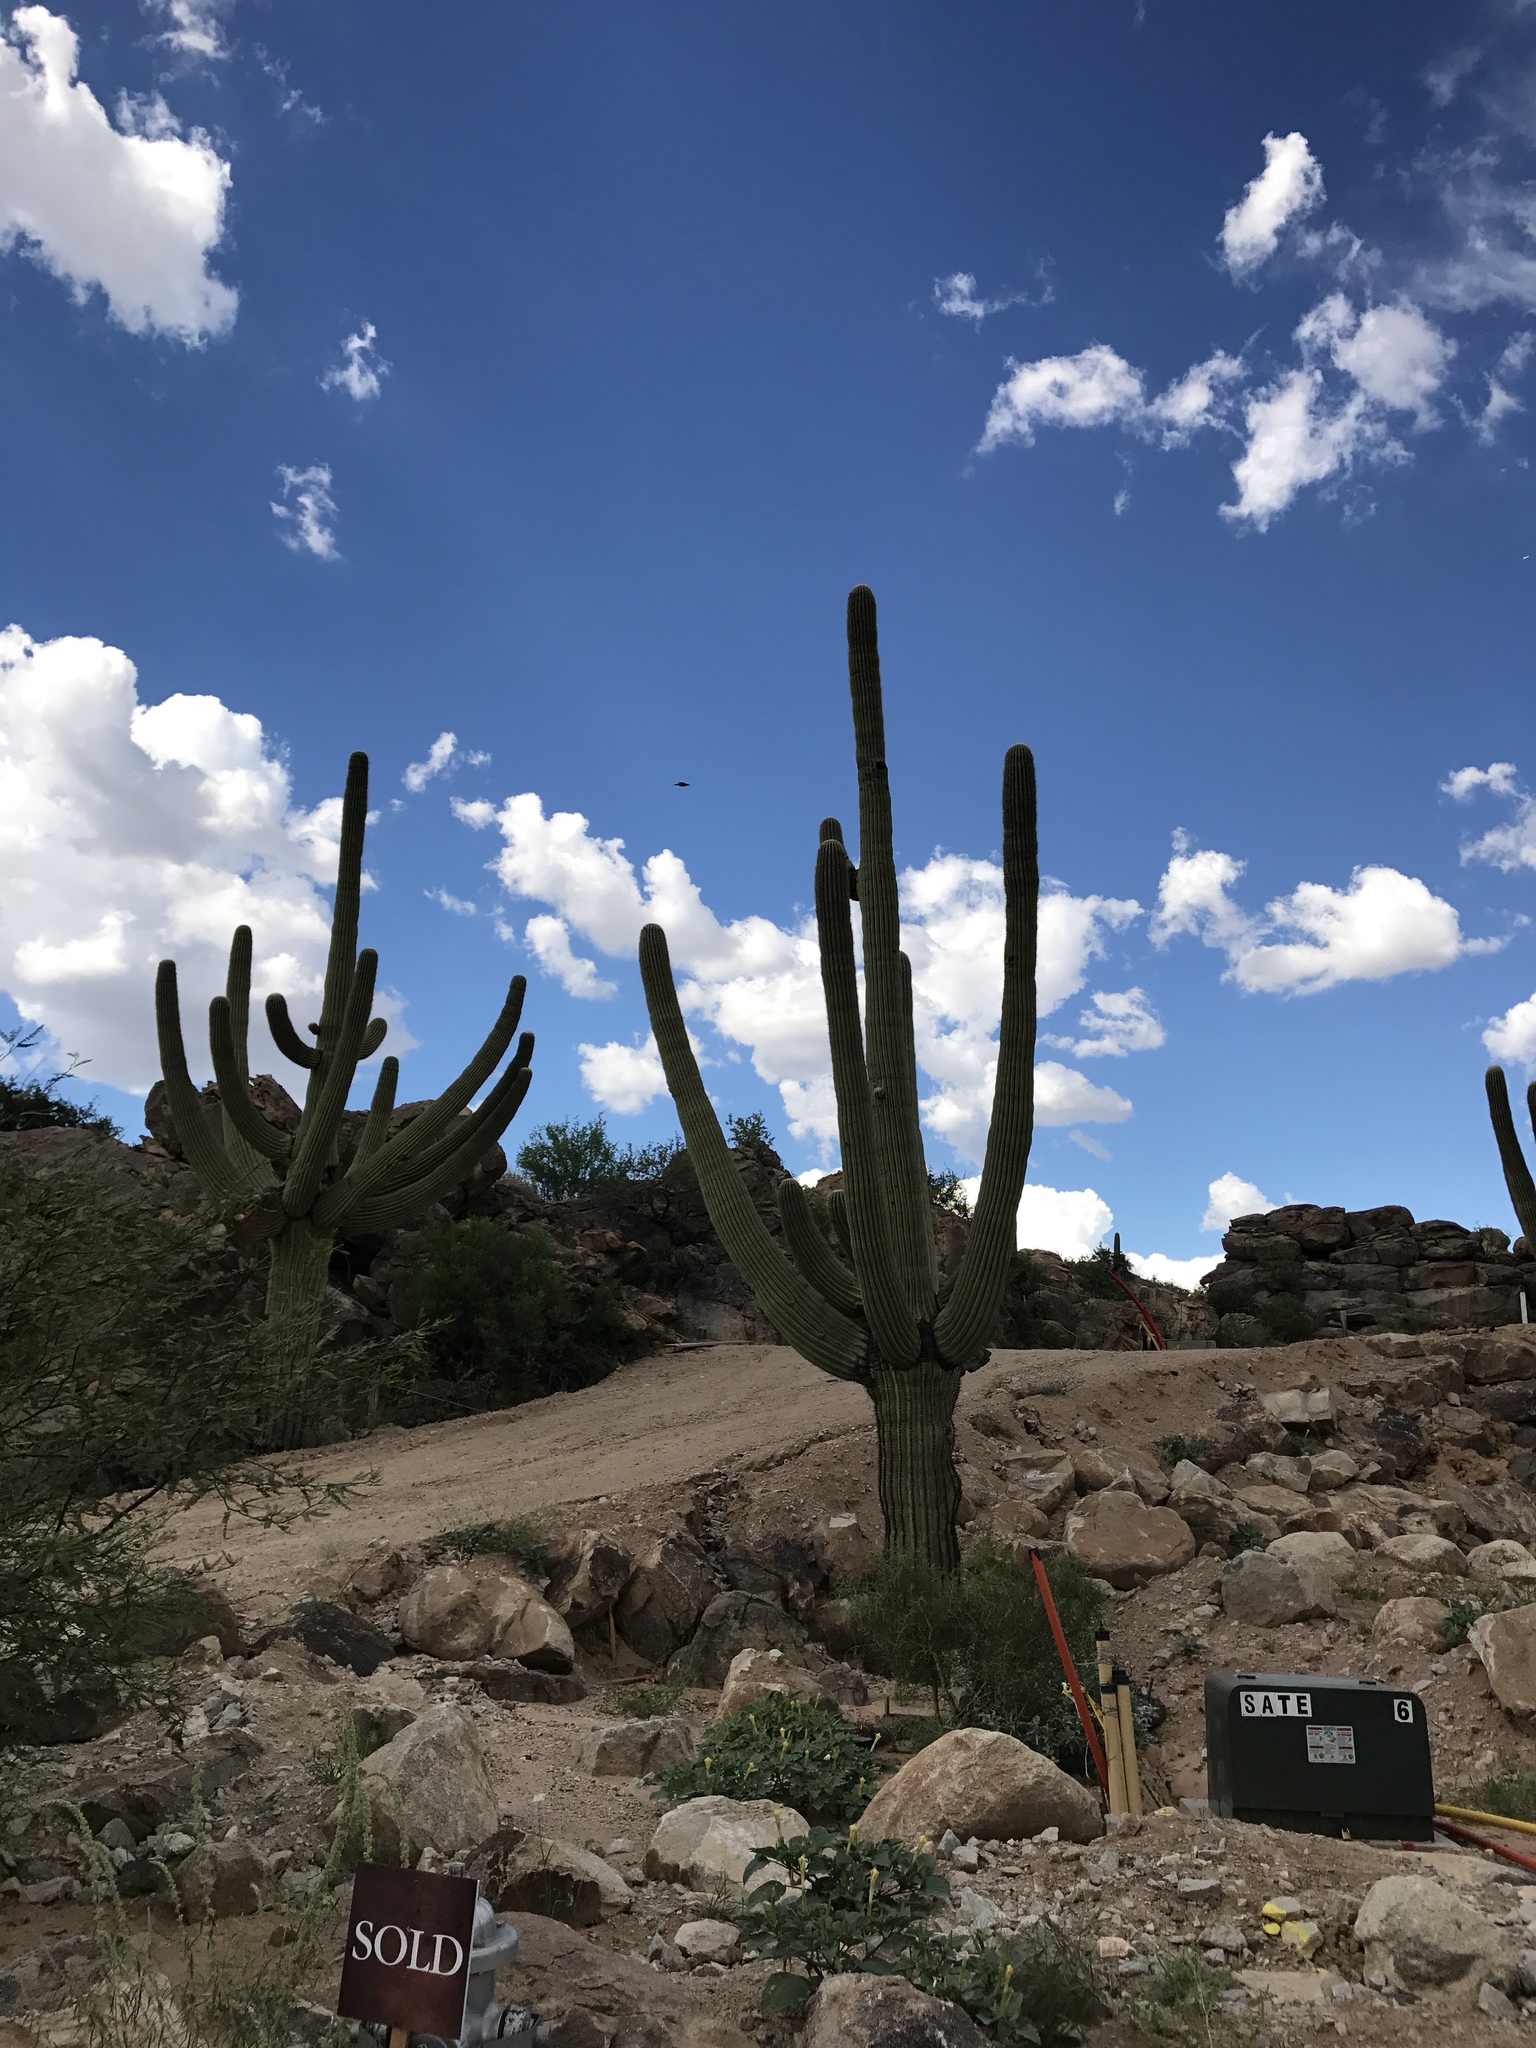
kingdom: Plantae
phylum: Tracheophyta
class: Magnoliopsida
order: Caryophyllales
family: Cactaceae
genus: Carnegiea
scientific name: Carnegiea gigantea
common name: Saguaro
